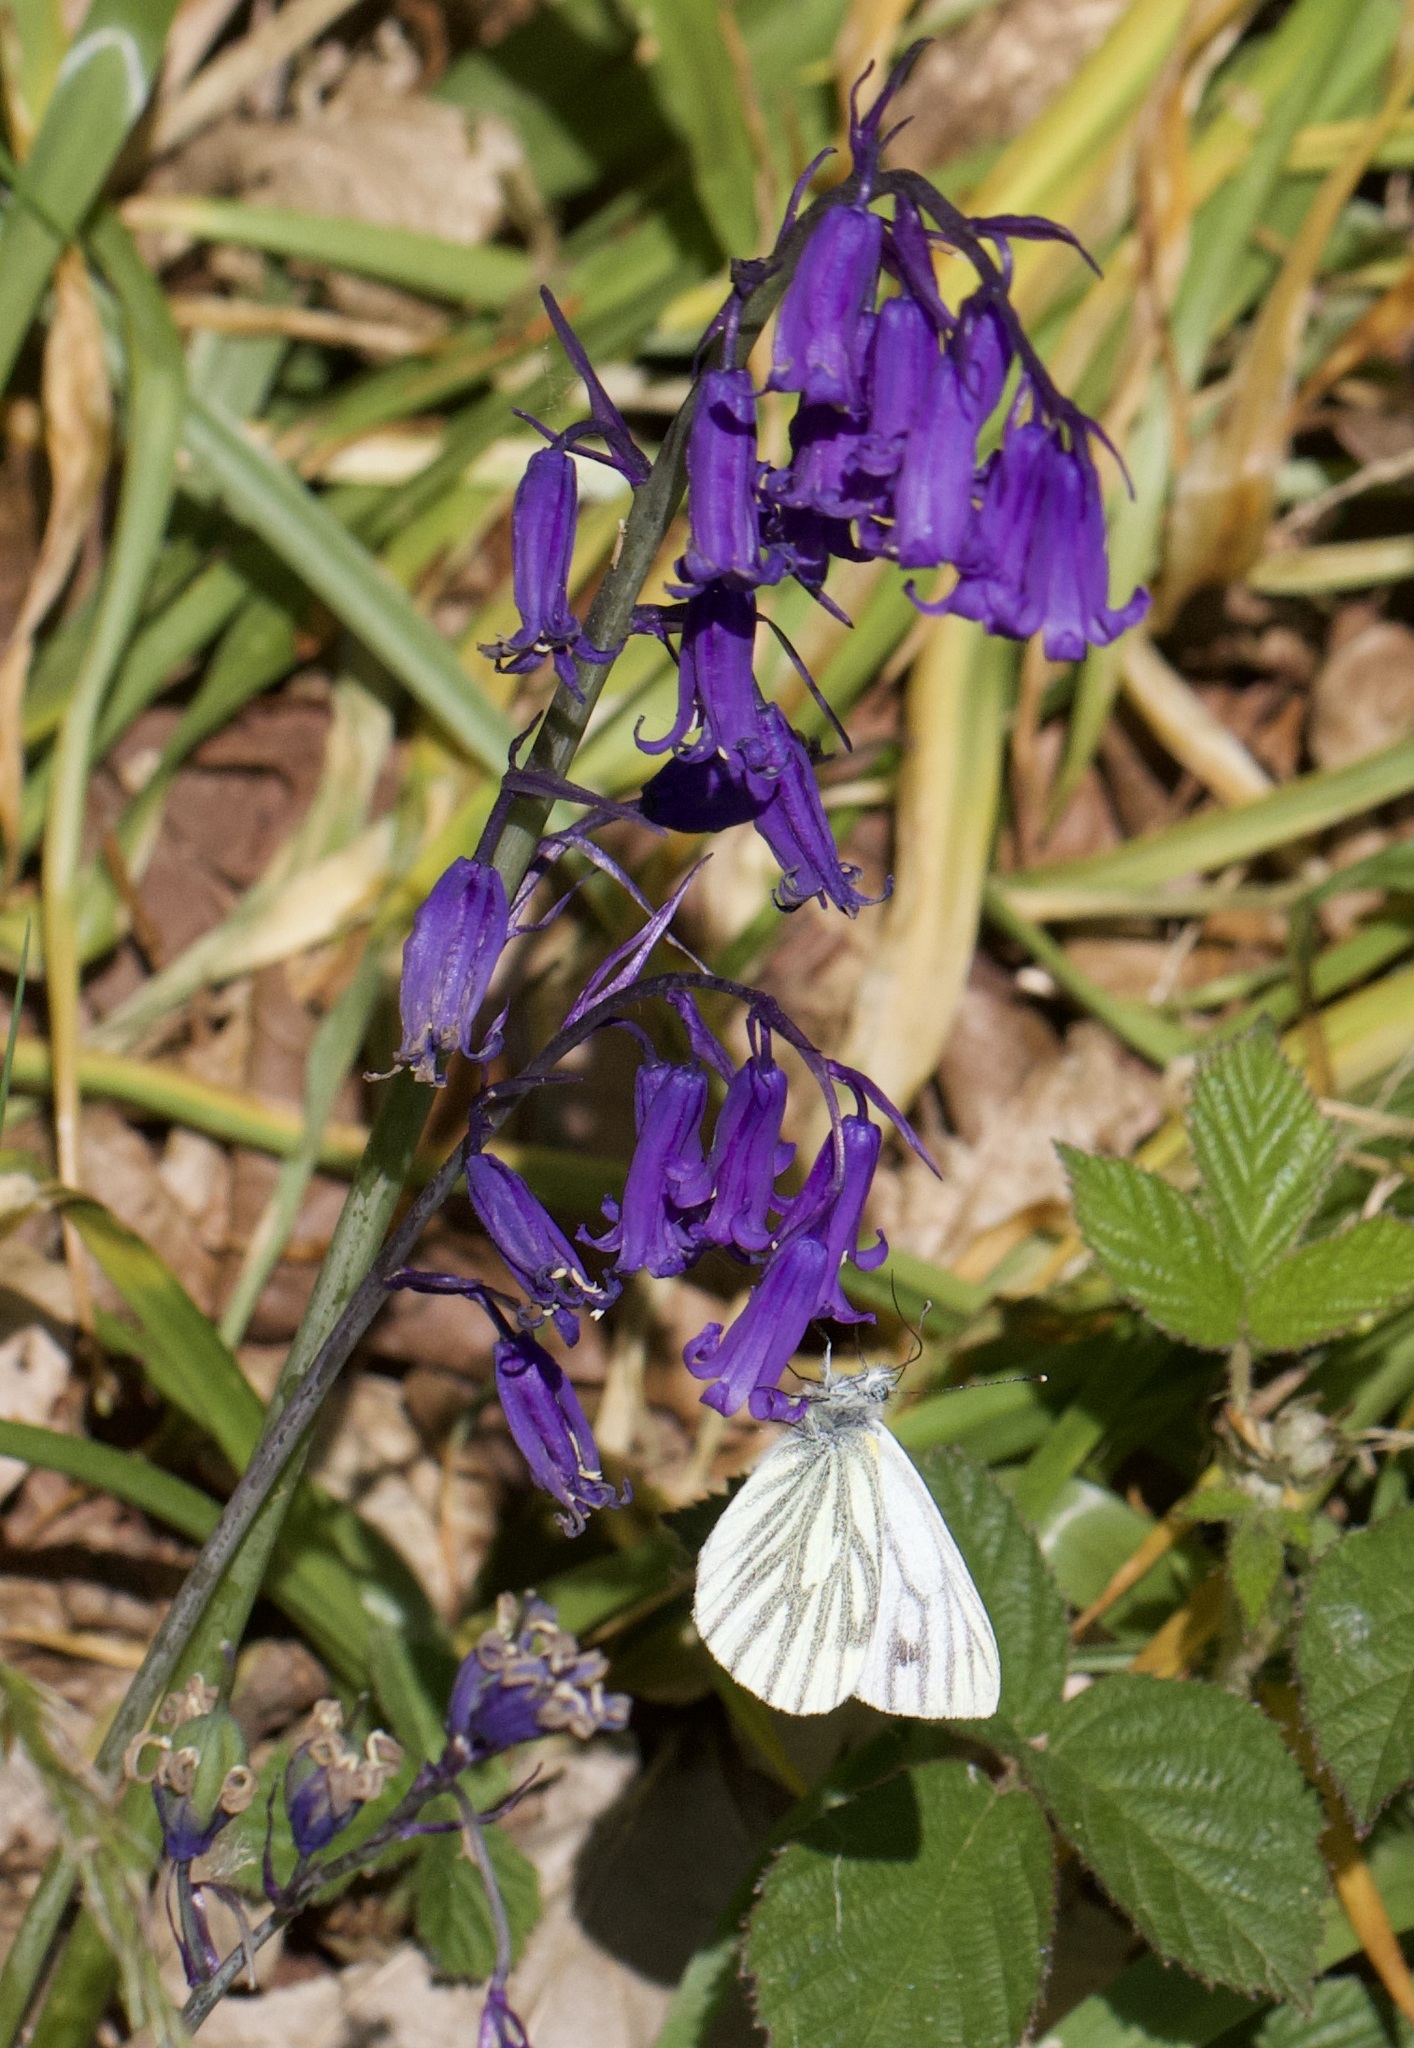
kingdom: Animalia
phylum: Arthropoda
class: Insecta
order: Lepidoptera
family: Pieridae
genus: Pieris
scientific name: Pieris napi
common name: Green-veined white
